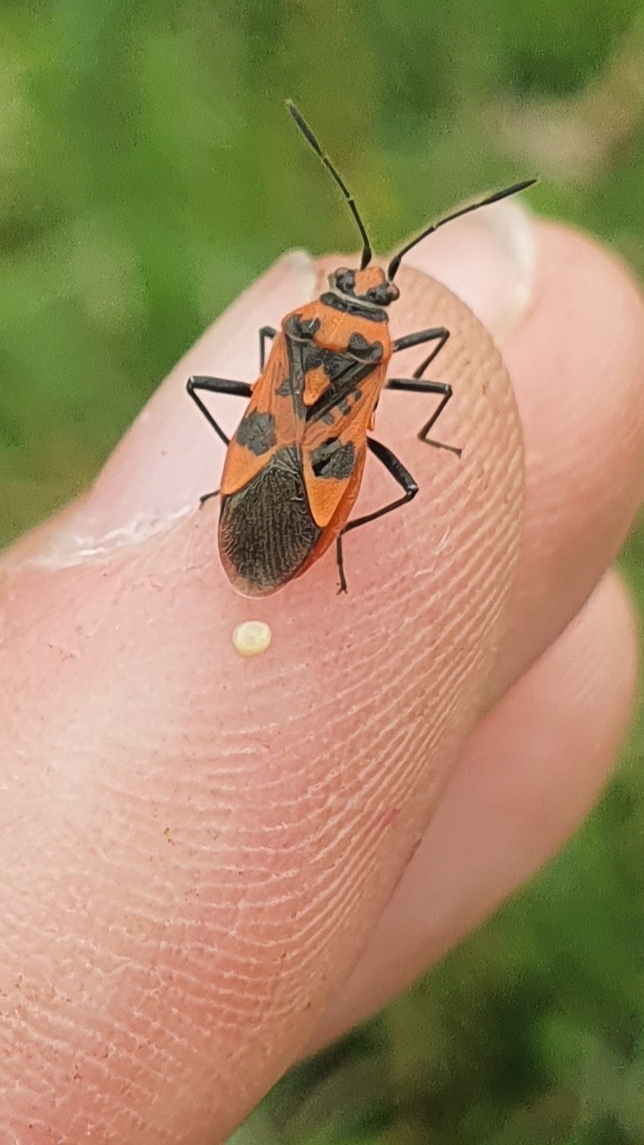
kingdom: Animalia
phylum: Arthropoda
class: Insecta
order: Hemiptera
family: Rhopalidae
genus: Corizus
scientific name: Corizus hyoscyami
